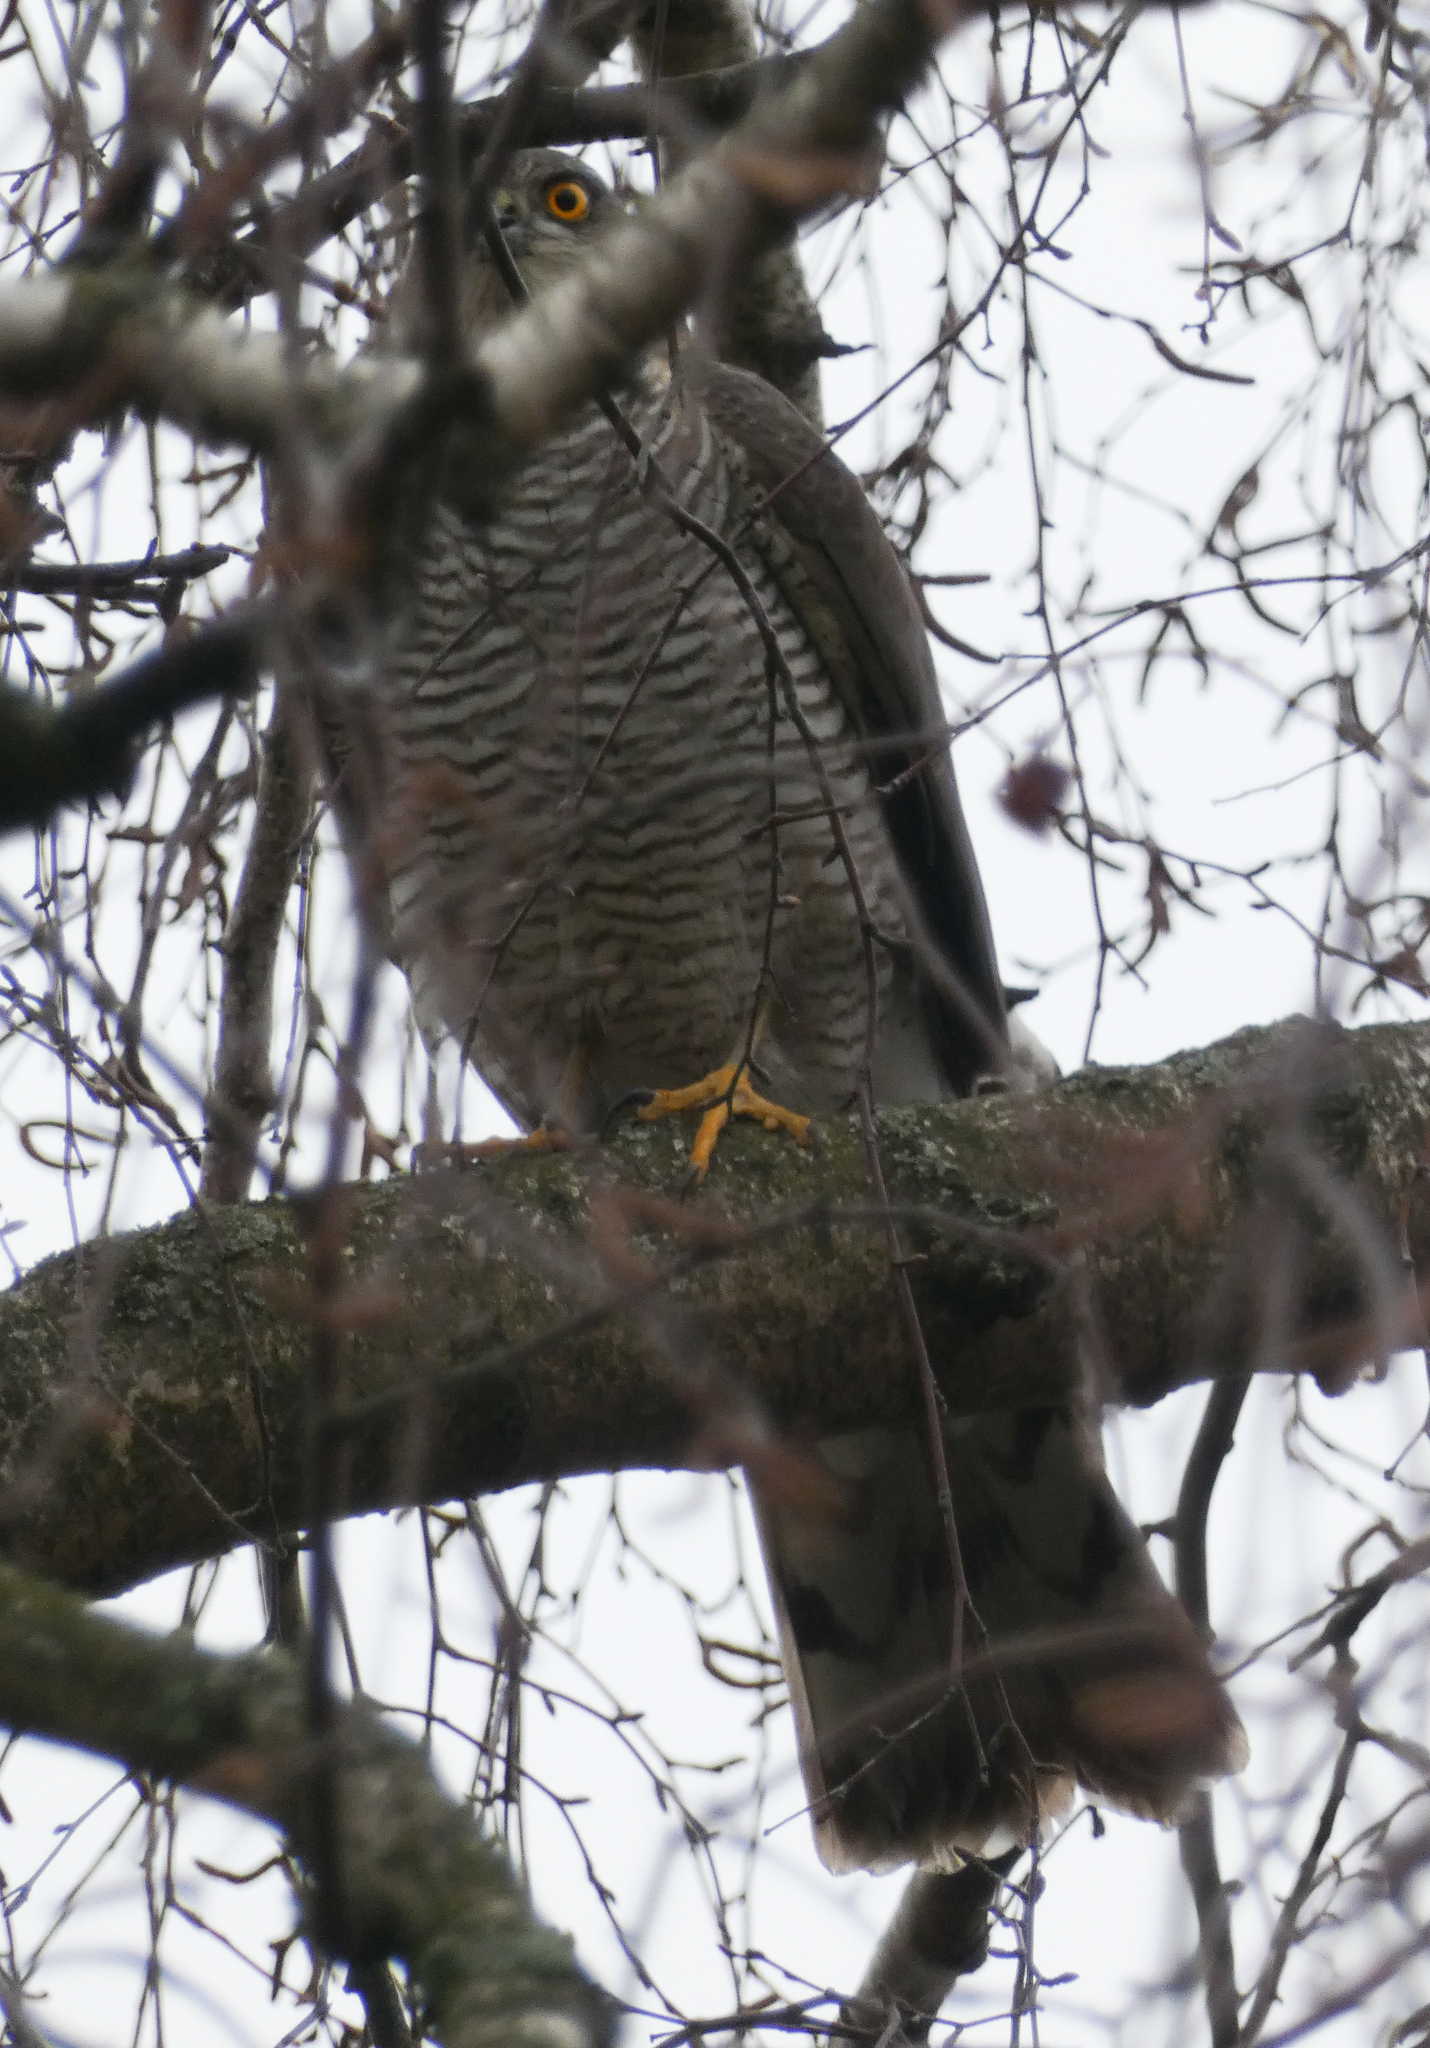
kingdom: Animalia
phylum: Chordata
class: Aves
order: Accipitriformes
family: Accipitridae
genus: Accipiter
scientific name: Accipiter nisus
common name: Eurasian sparrowhawk
